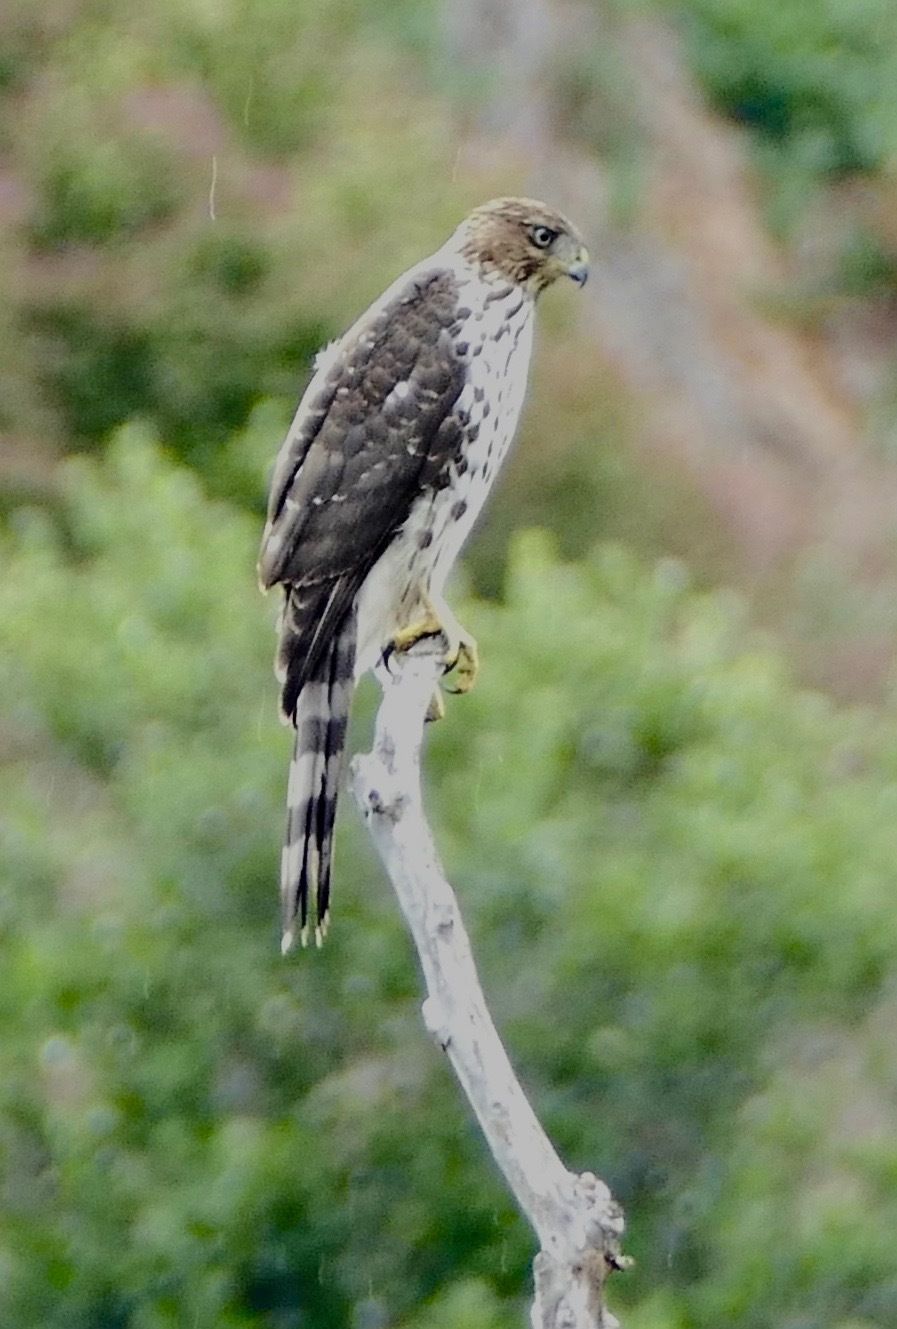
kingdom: Animalia
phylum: Chordata
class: Aves
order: Accipitriformes
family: Accipitridae
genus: Accipiter
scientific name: Accipiter cooperii
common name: Cooper's hawk
